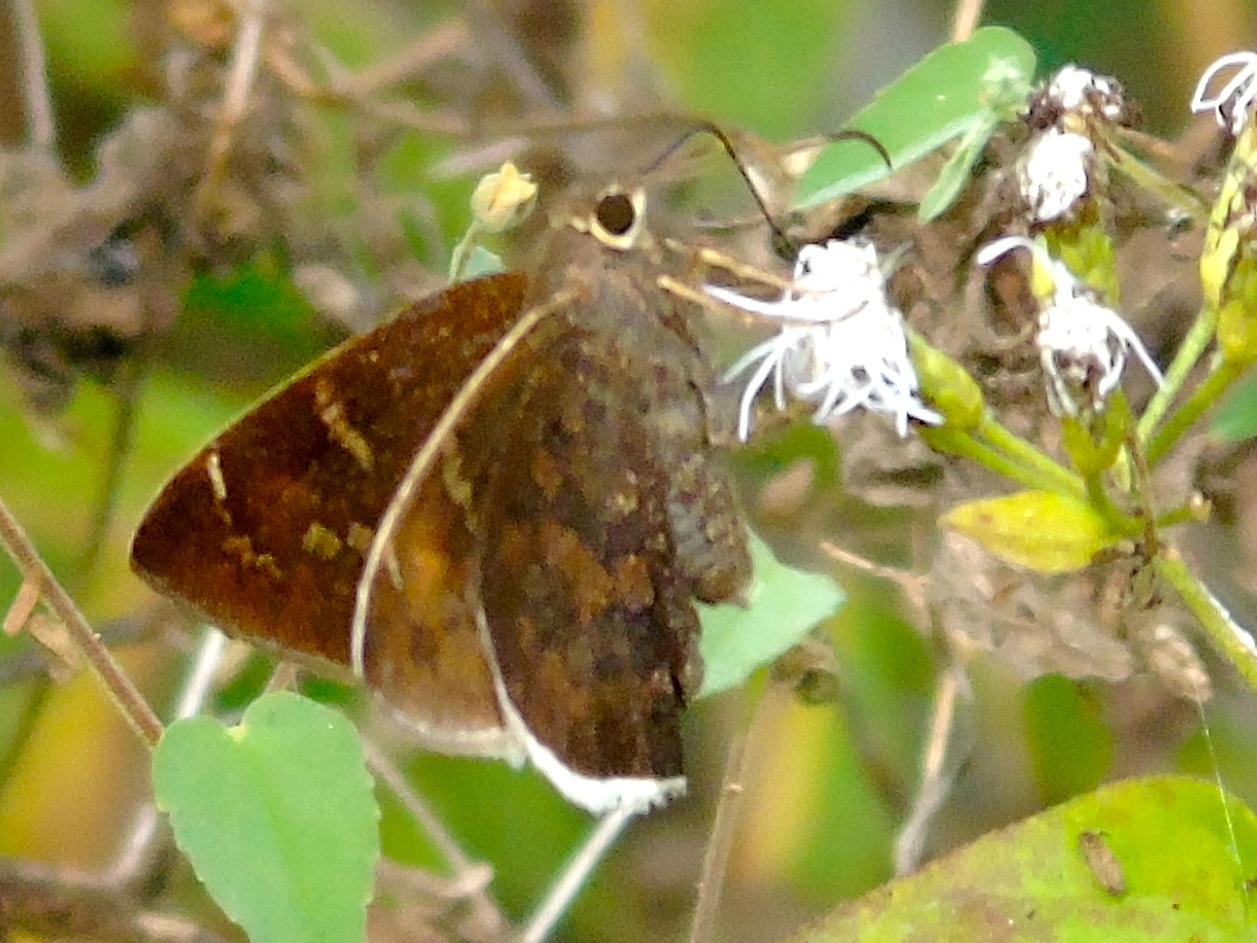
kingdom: Animalia
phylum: Arthropoda
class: Insecta
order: Lepidoptera
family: Hesperiidae
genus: Achalarus
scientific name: Achalarus Murgaria albociliatus
